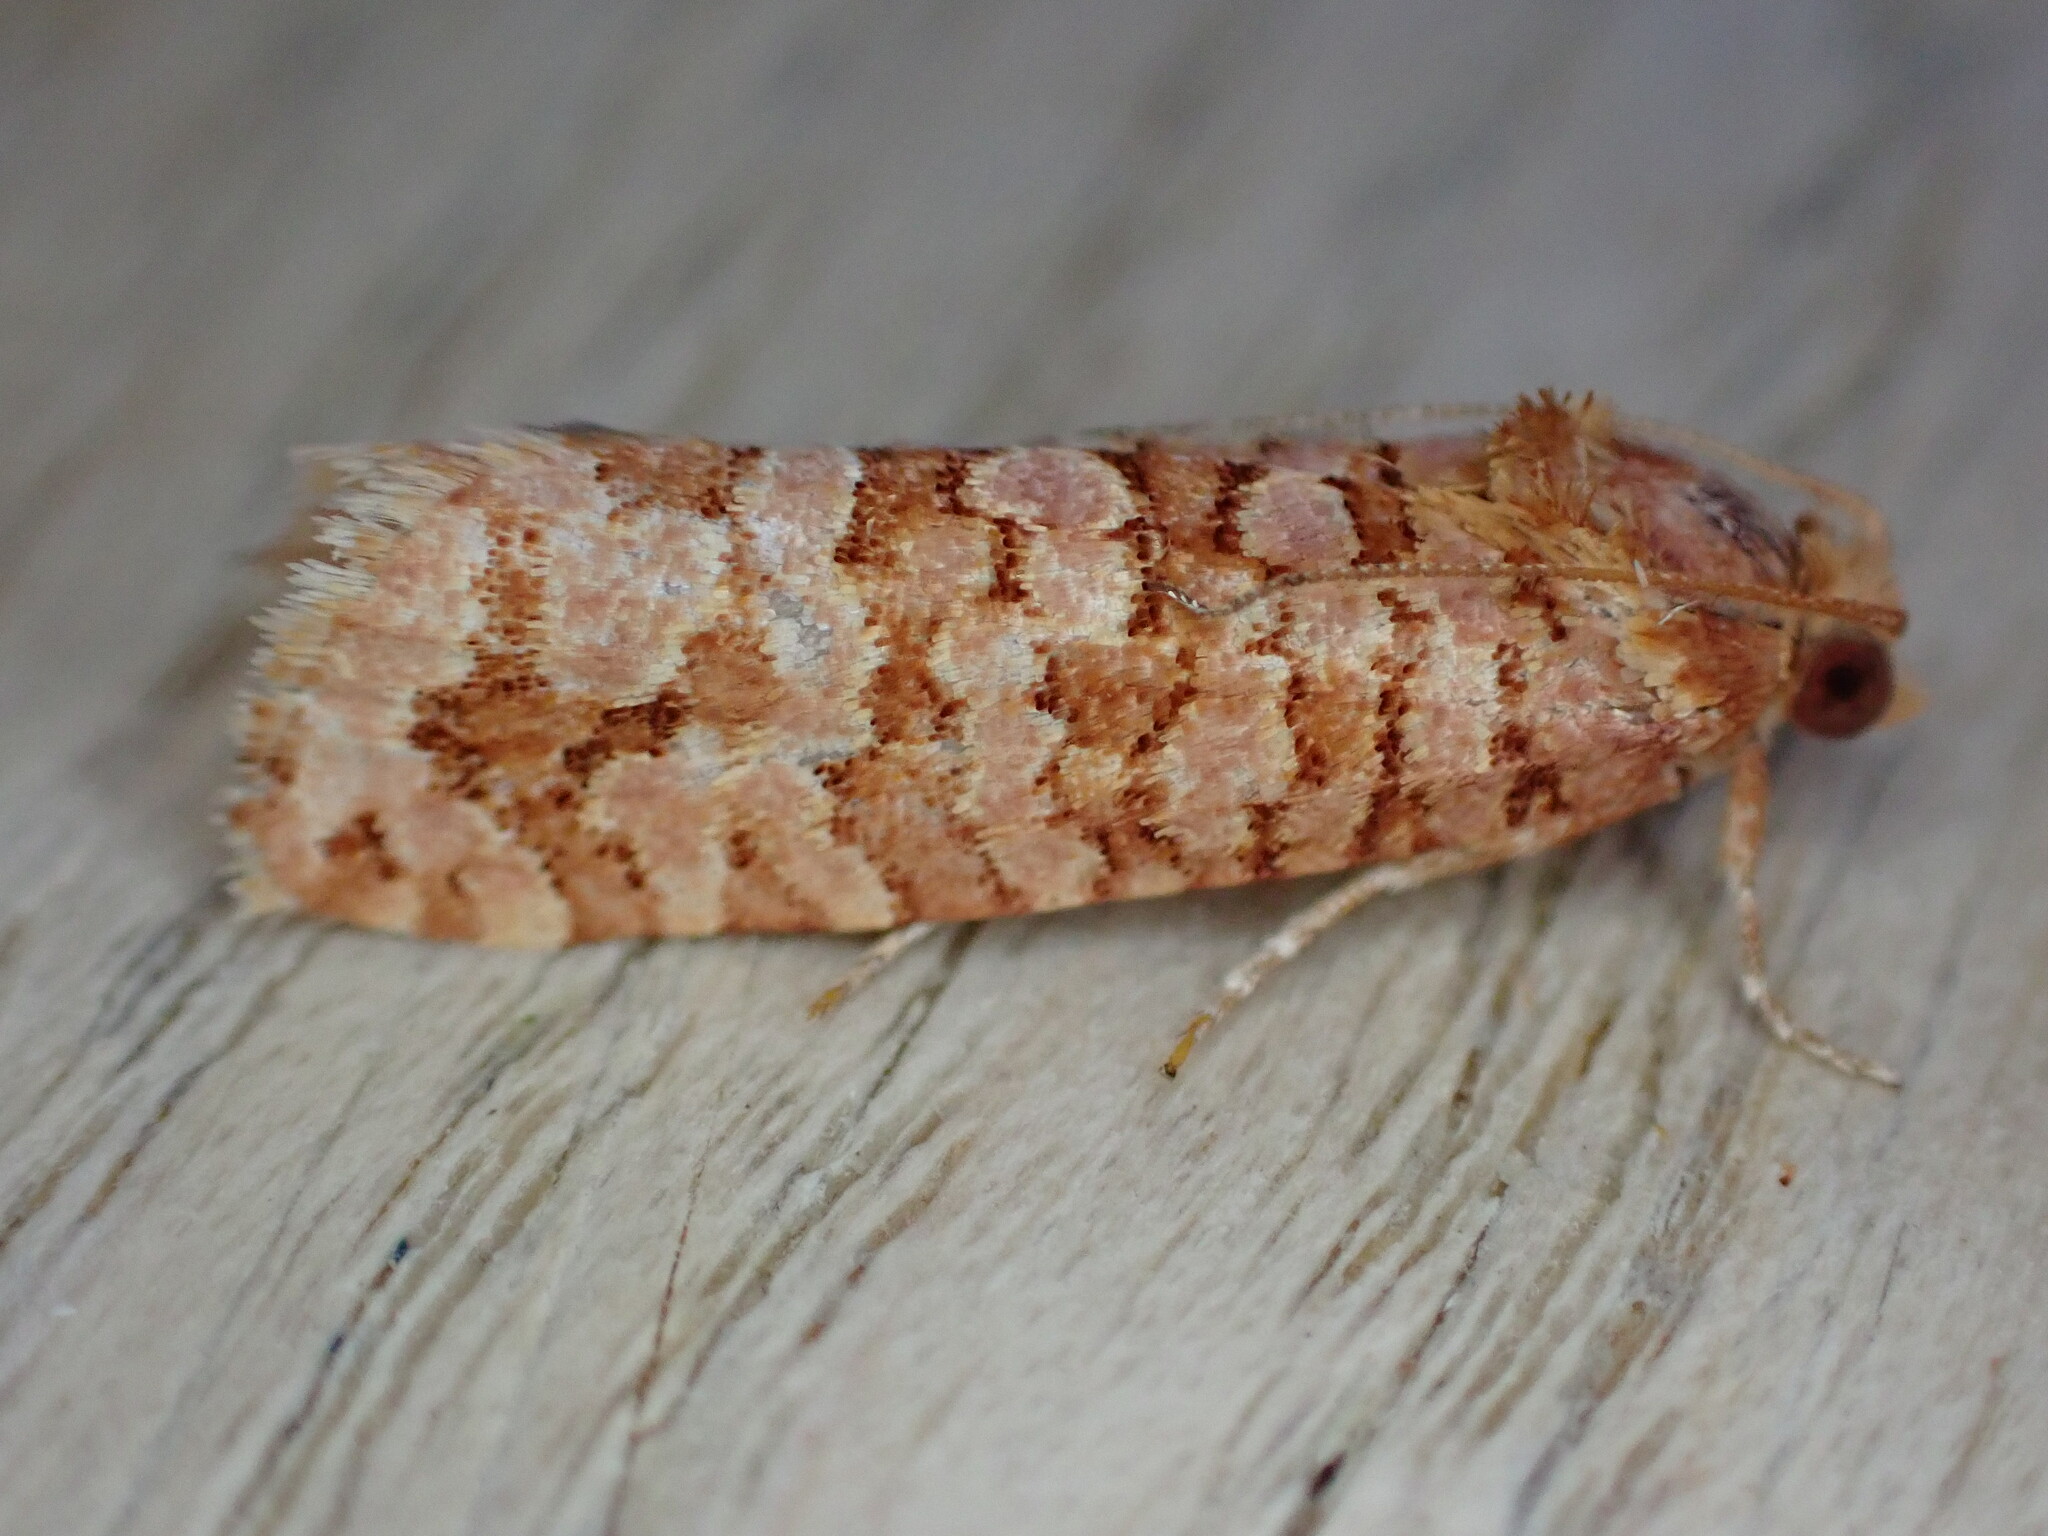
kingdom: Animalia
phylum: Arthropoda
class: Insecta
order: Lepidoptera
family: Tortricidae
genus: Lozotaeniodes
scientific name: Lozotaeniodes formosana
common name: Orange pine twist
